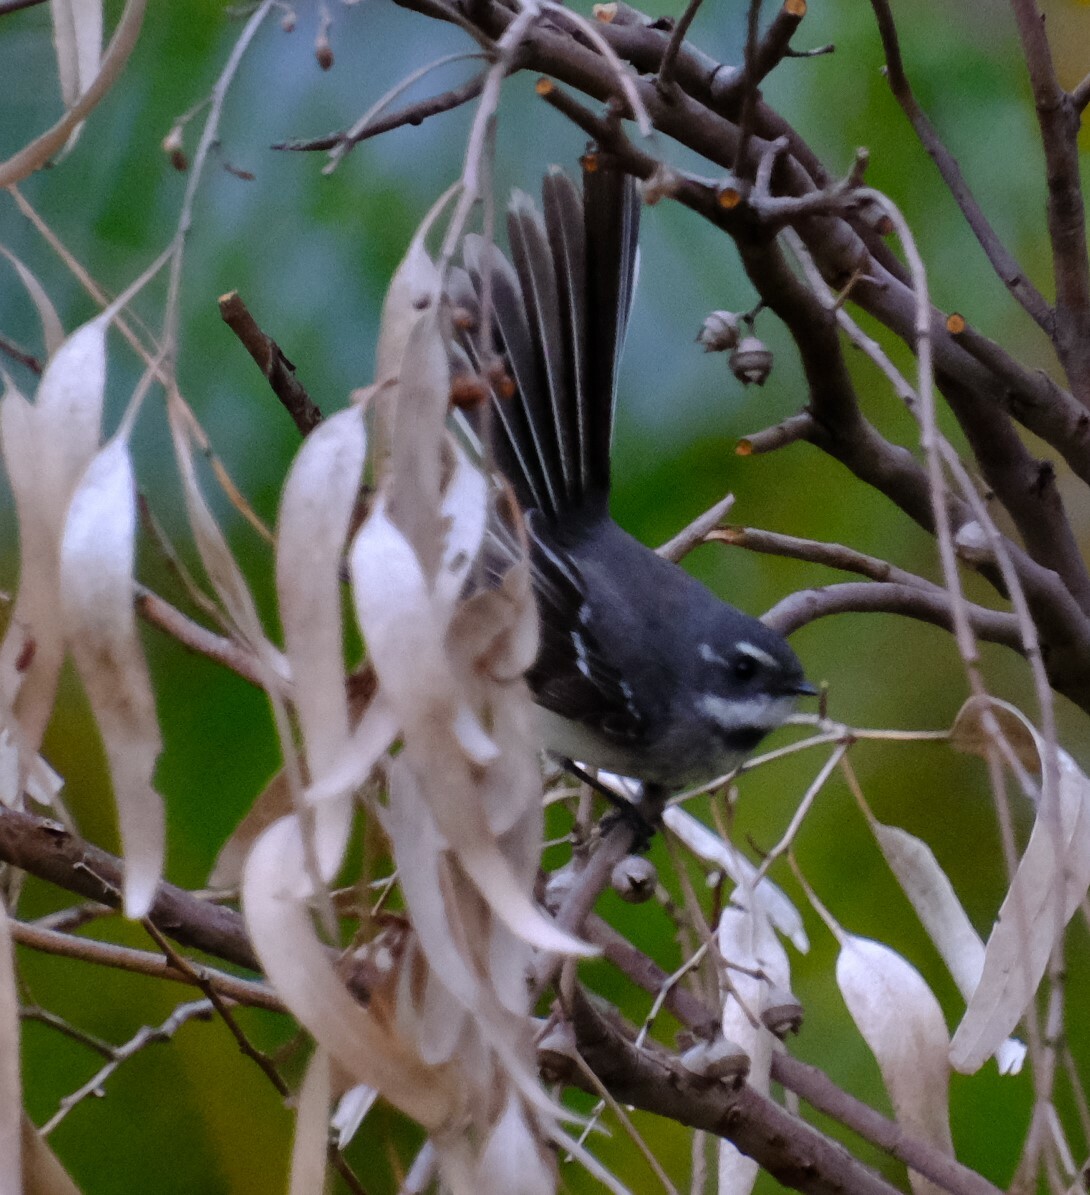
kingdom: Animalia
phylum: Chordata
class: Aves
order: Passeriformes
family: Rhipiduridae
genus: Rhipidura
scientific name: Rhipidura albiscapa
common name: Grey fantail
